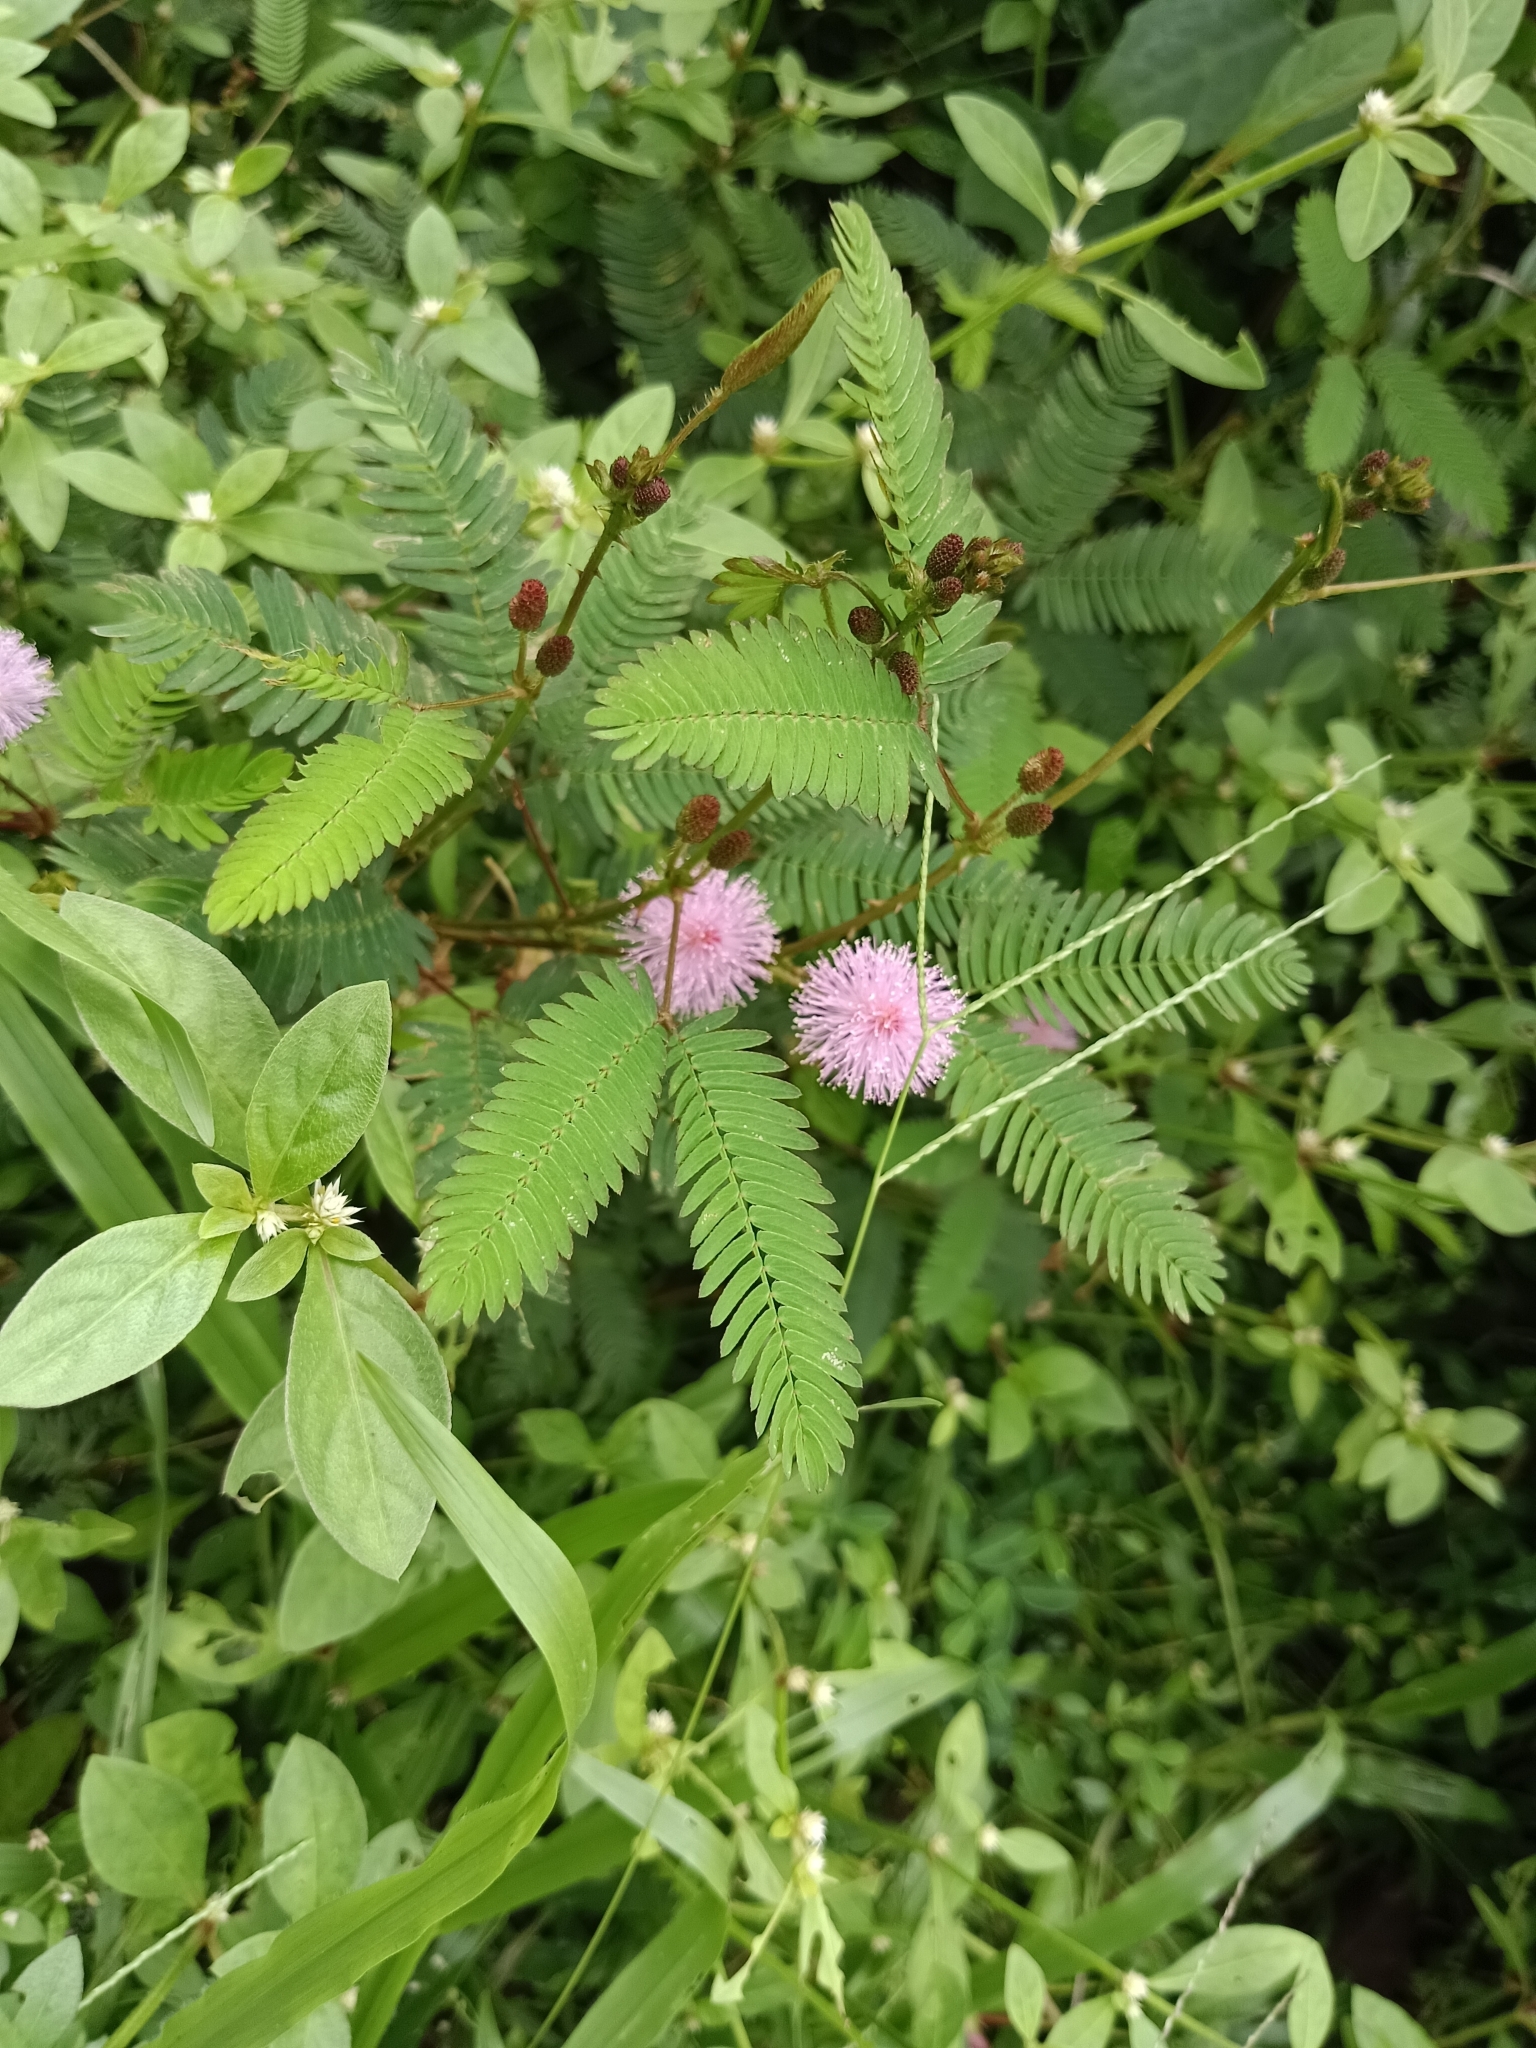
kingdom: Plantae
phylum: Tracheophyta
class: Magnoliopsida
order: Fabales
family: Fabaceae
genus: Mimosa
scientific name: Mimosa pudica
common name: Sensitive plant
